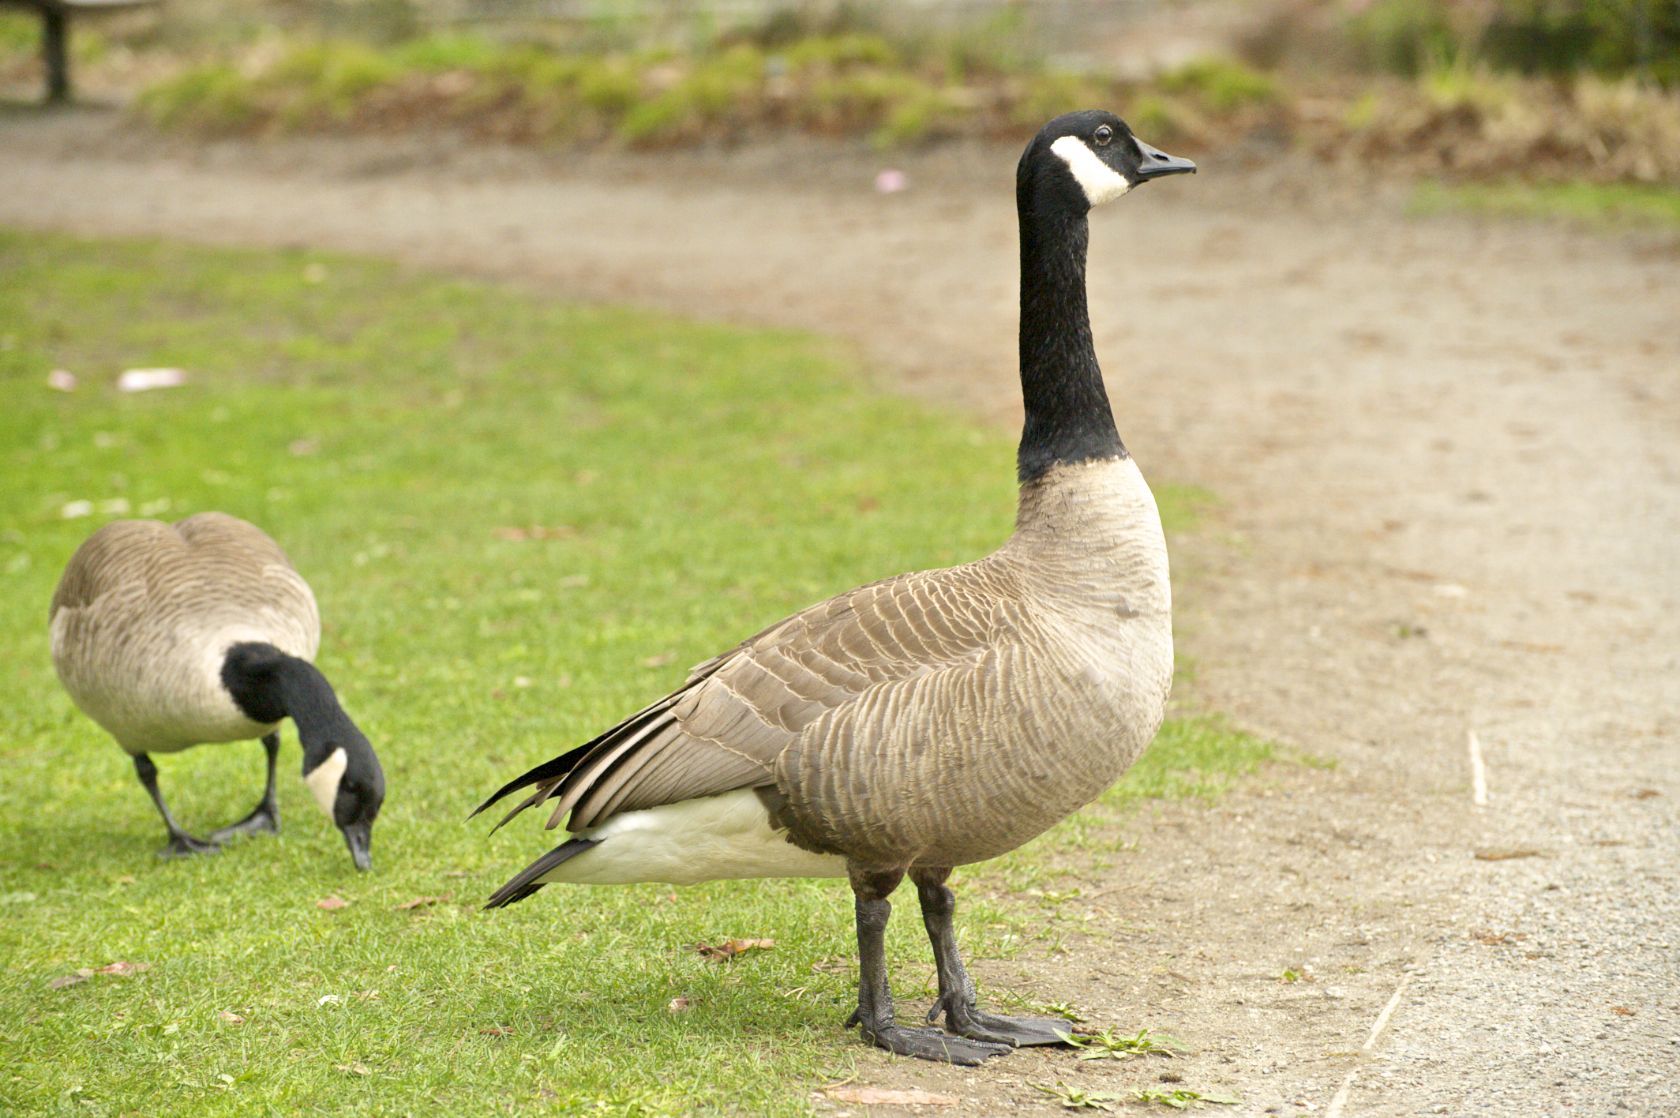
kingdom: Animalia
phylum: Chordata
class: Aves
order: Anseriformes
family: Anatidae
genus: Branta
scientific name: Branta canadensis
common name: Canada goose
